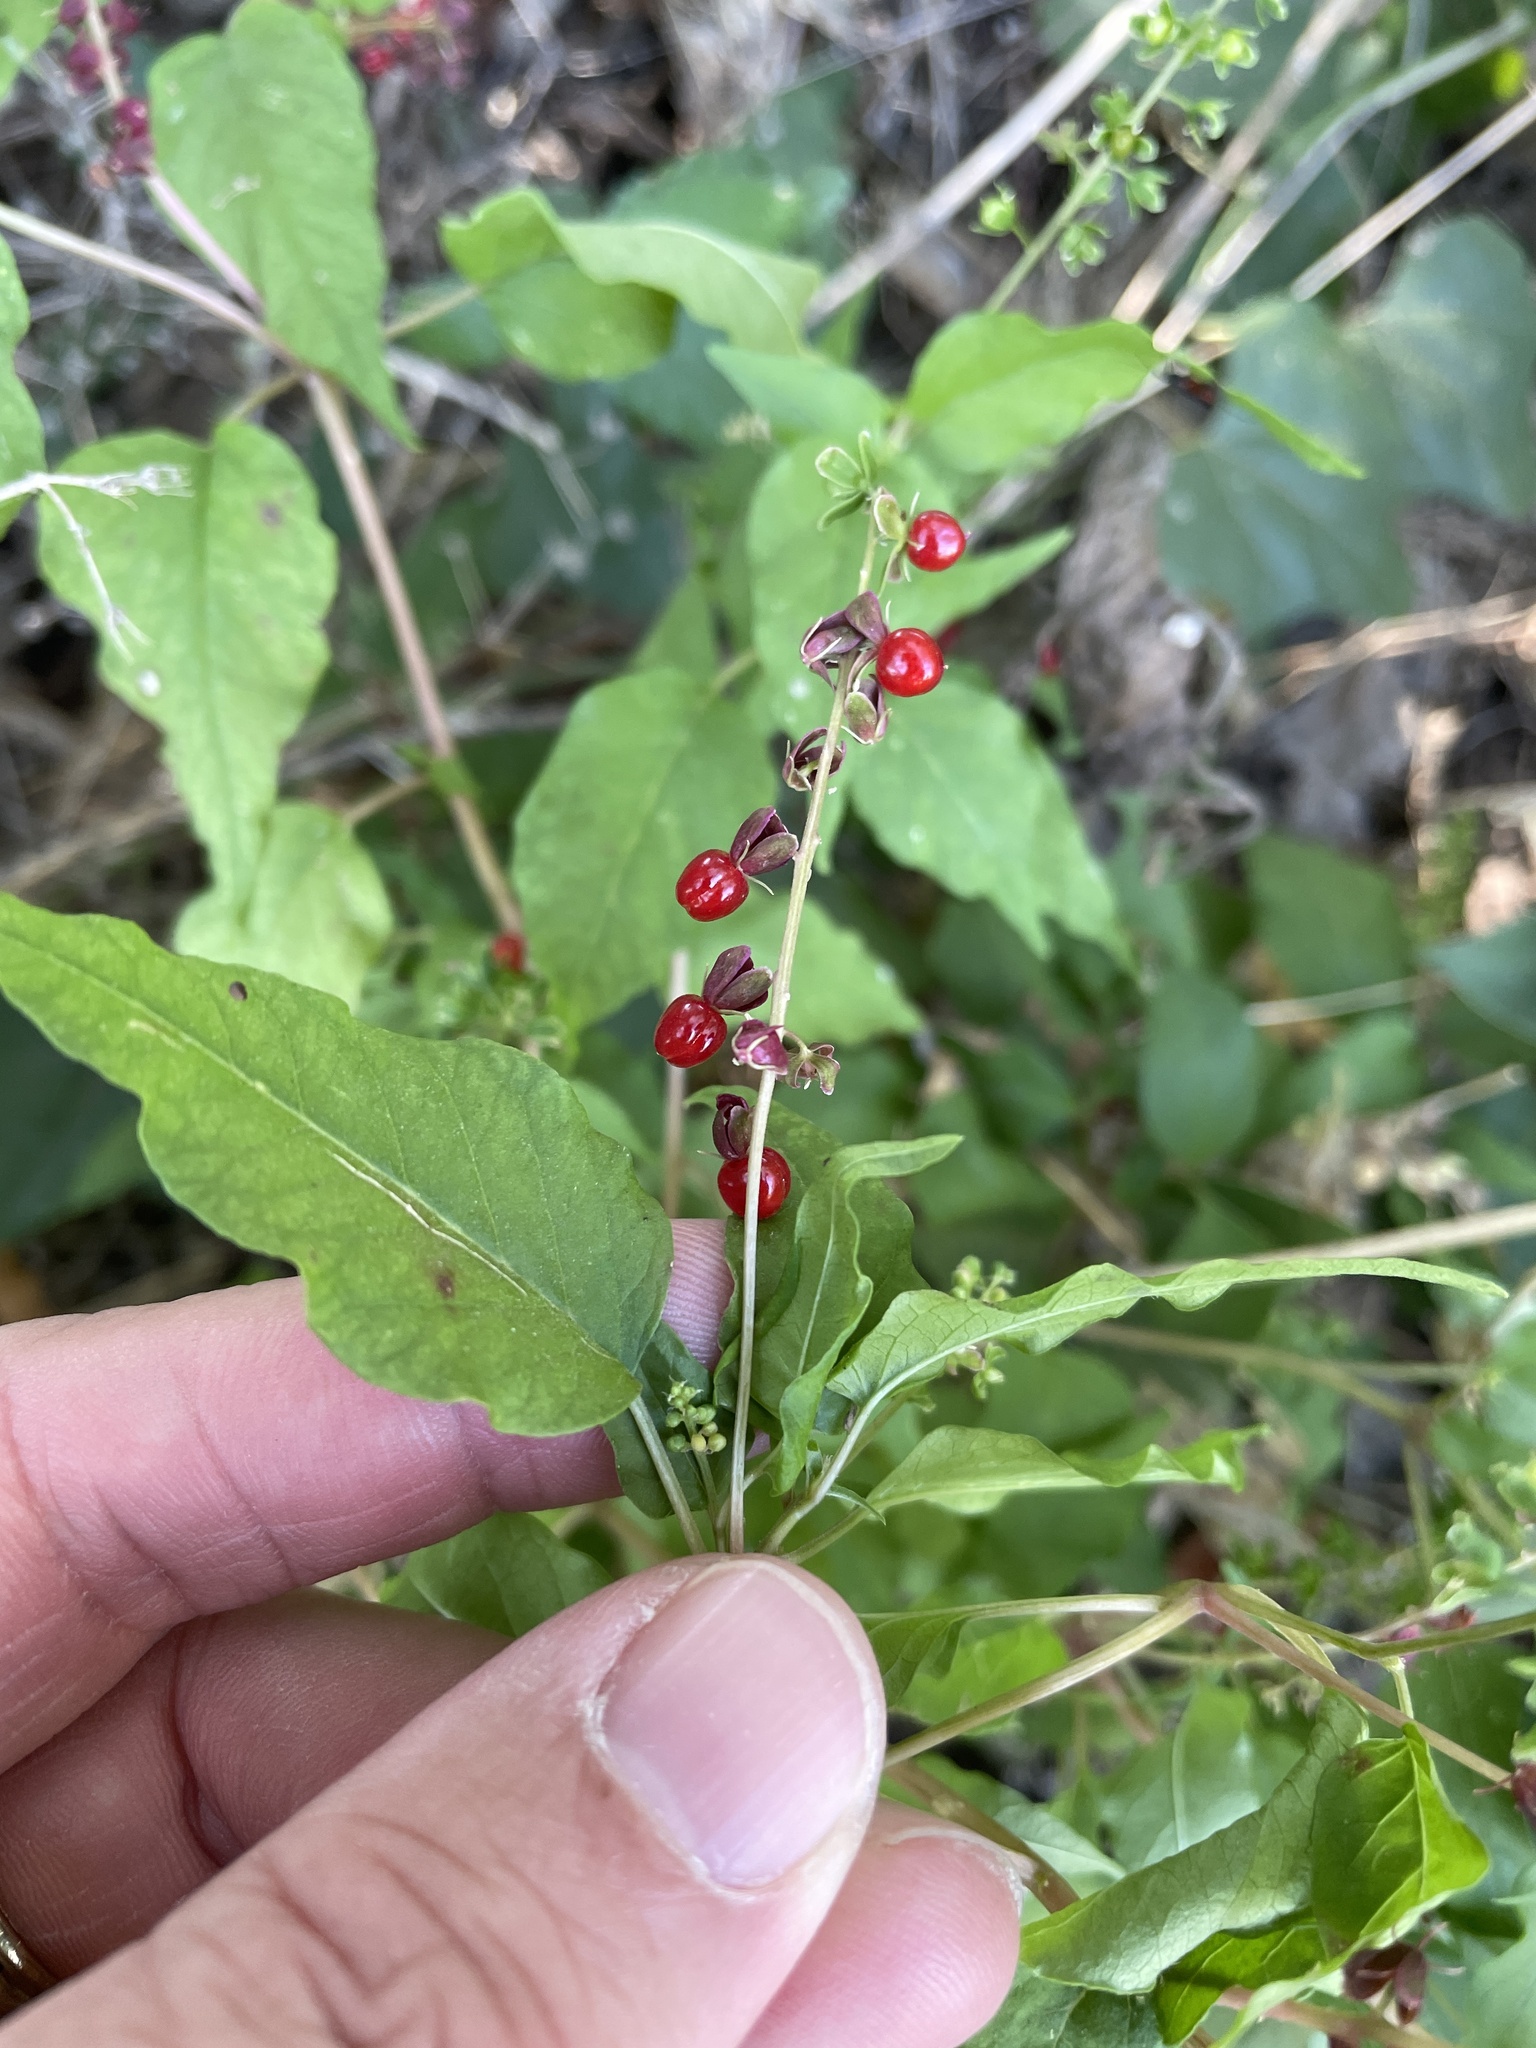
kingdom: Plantae
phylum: Tracheophyta
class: Magnoliopsida
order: Caryophyllales
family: Phytolaccaceae
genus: Rivina
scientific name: Rivina humilis
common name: Rougeplant
